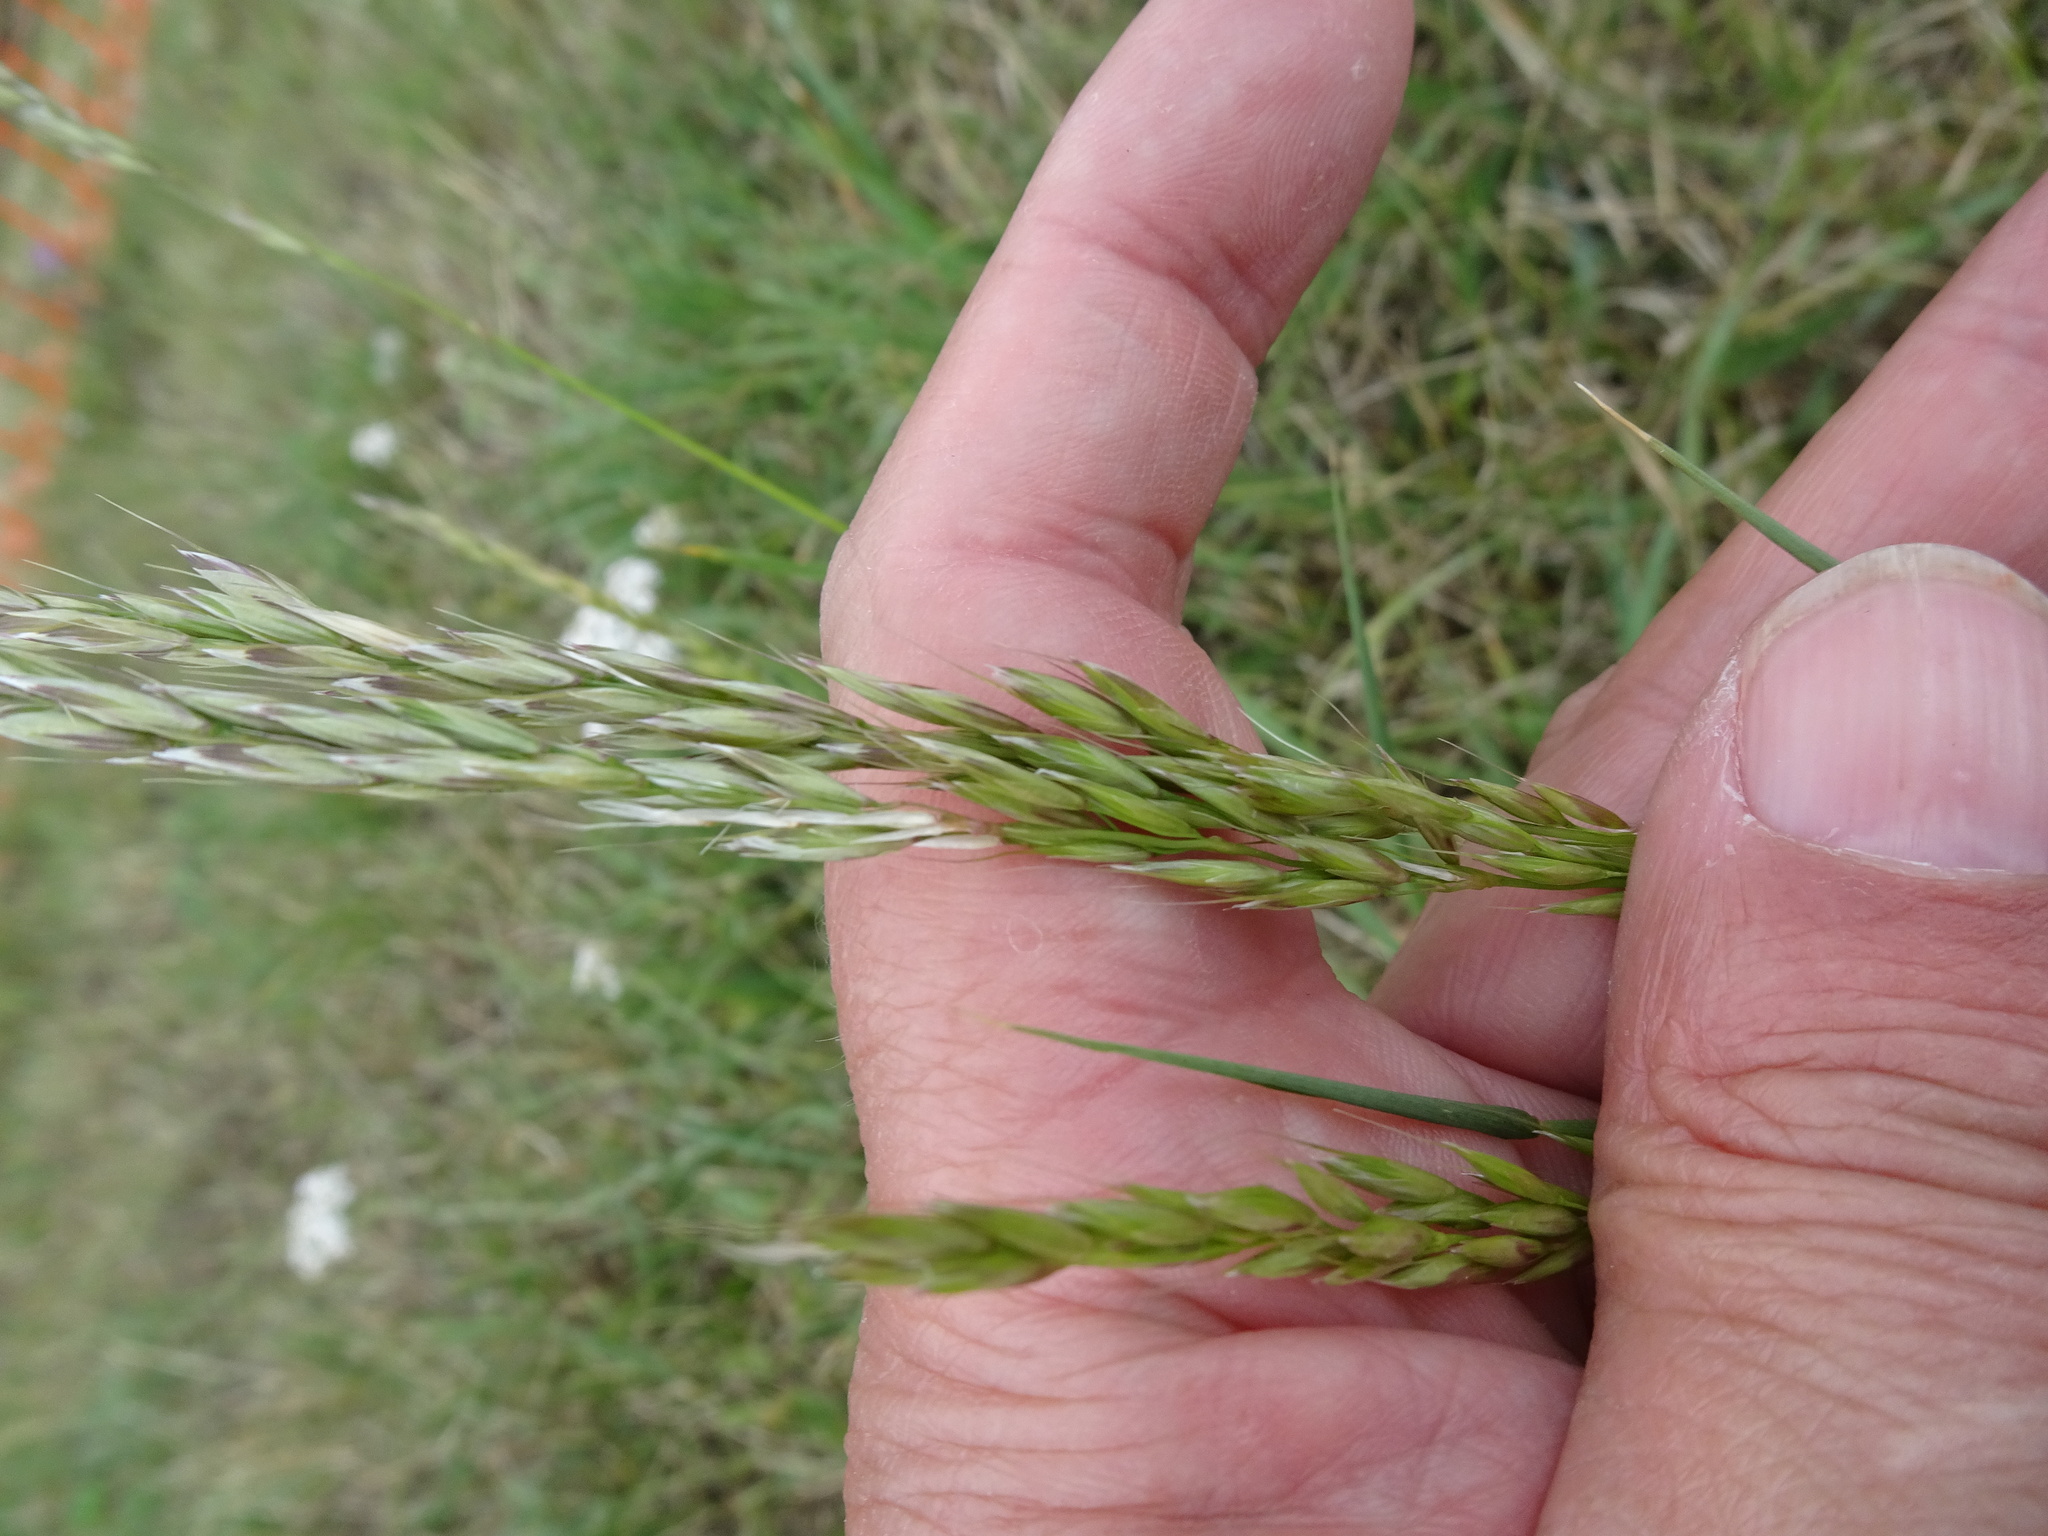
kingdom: Plantae
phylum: Tracheophyta
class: Liliopsida
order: Poales
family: Poaceae
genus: Arrhenatherum
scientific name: Arrhenatherum elatius
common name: Tall oatgrass
